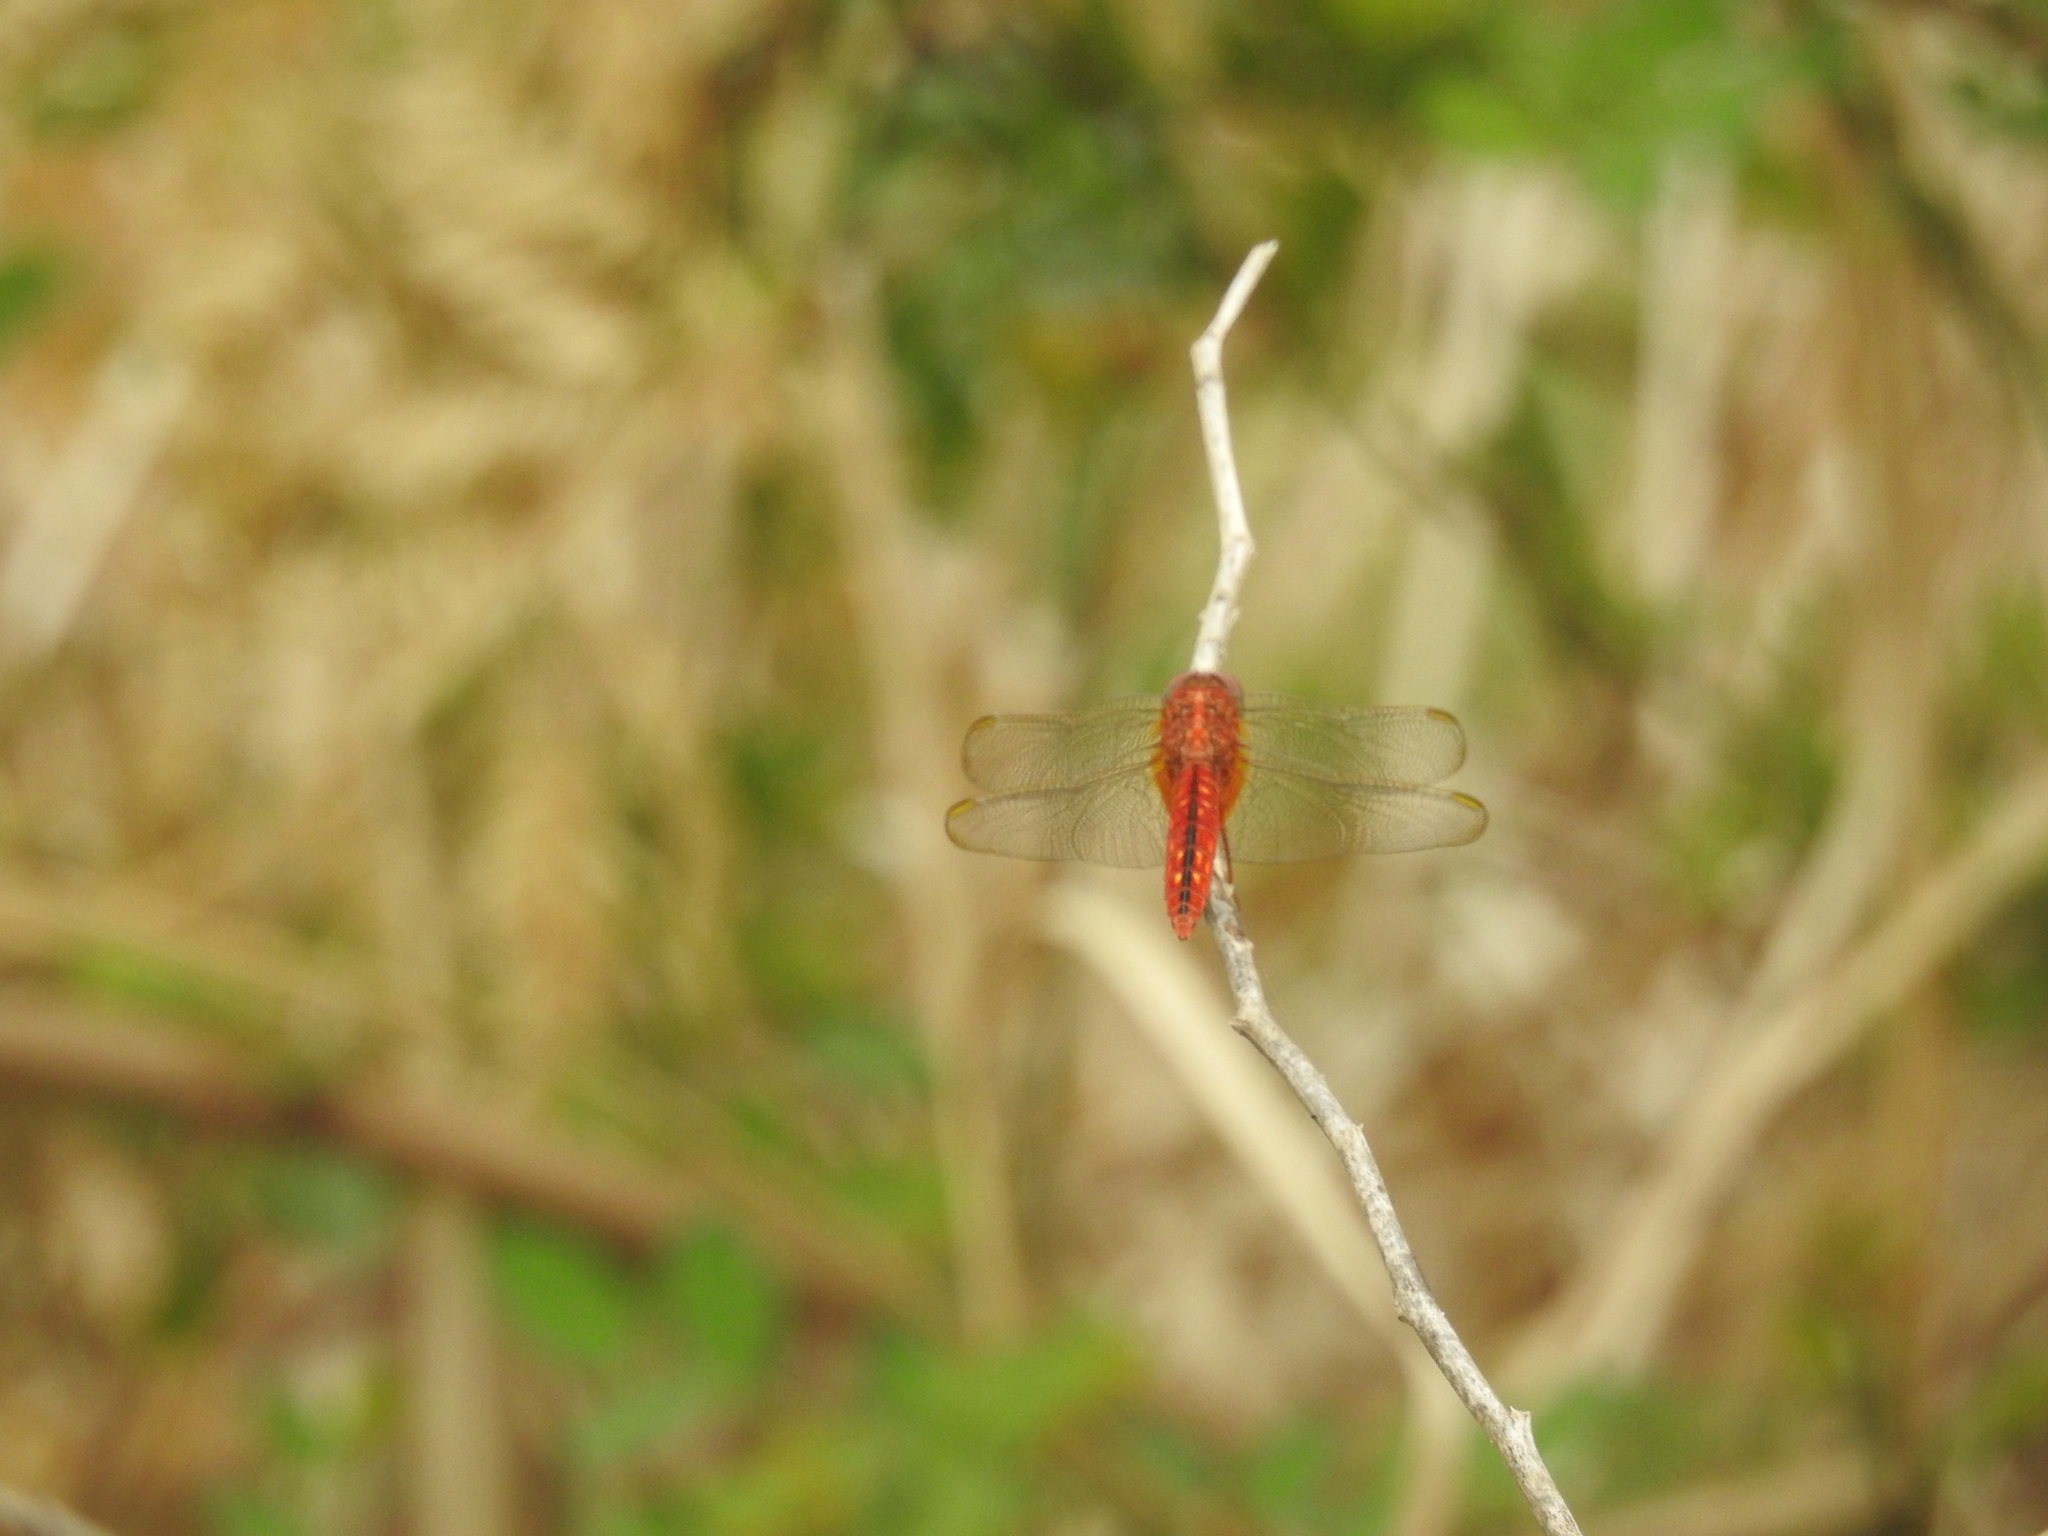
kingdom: Animalia
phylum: Arthropoda
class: Insecta
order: Odonata
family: Libellulidae
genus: Crocothemis
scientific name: Crocothemis servilia
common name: Scarlet skimmer
